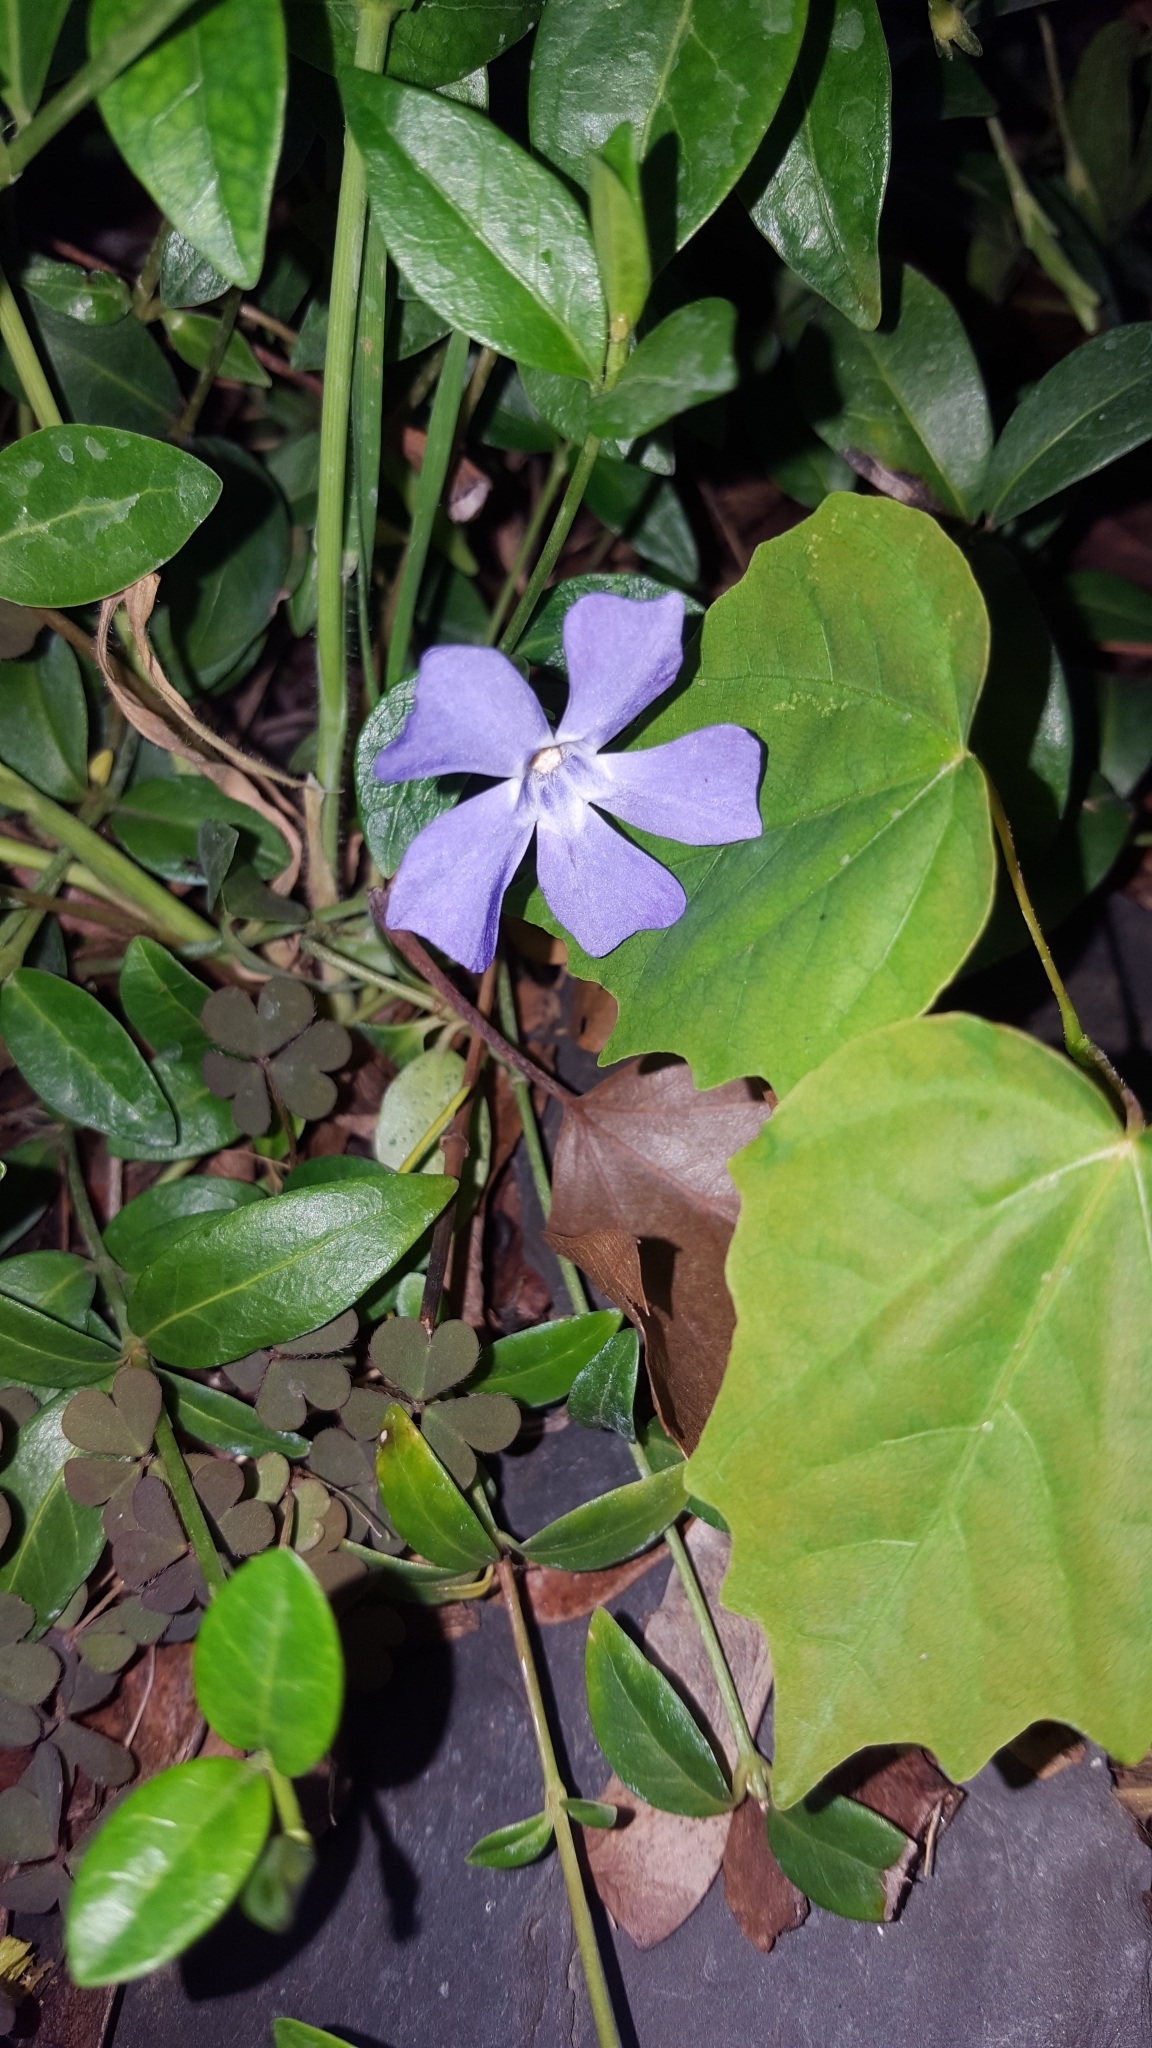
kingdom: Plantae
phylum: Tracheophyta
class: Magnoliopsida
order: Gentianales
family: Apocynaceae
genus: Vinca
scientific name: Vinca minor
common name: Lesser periwinkle
